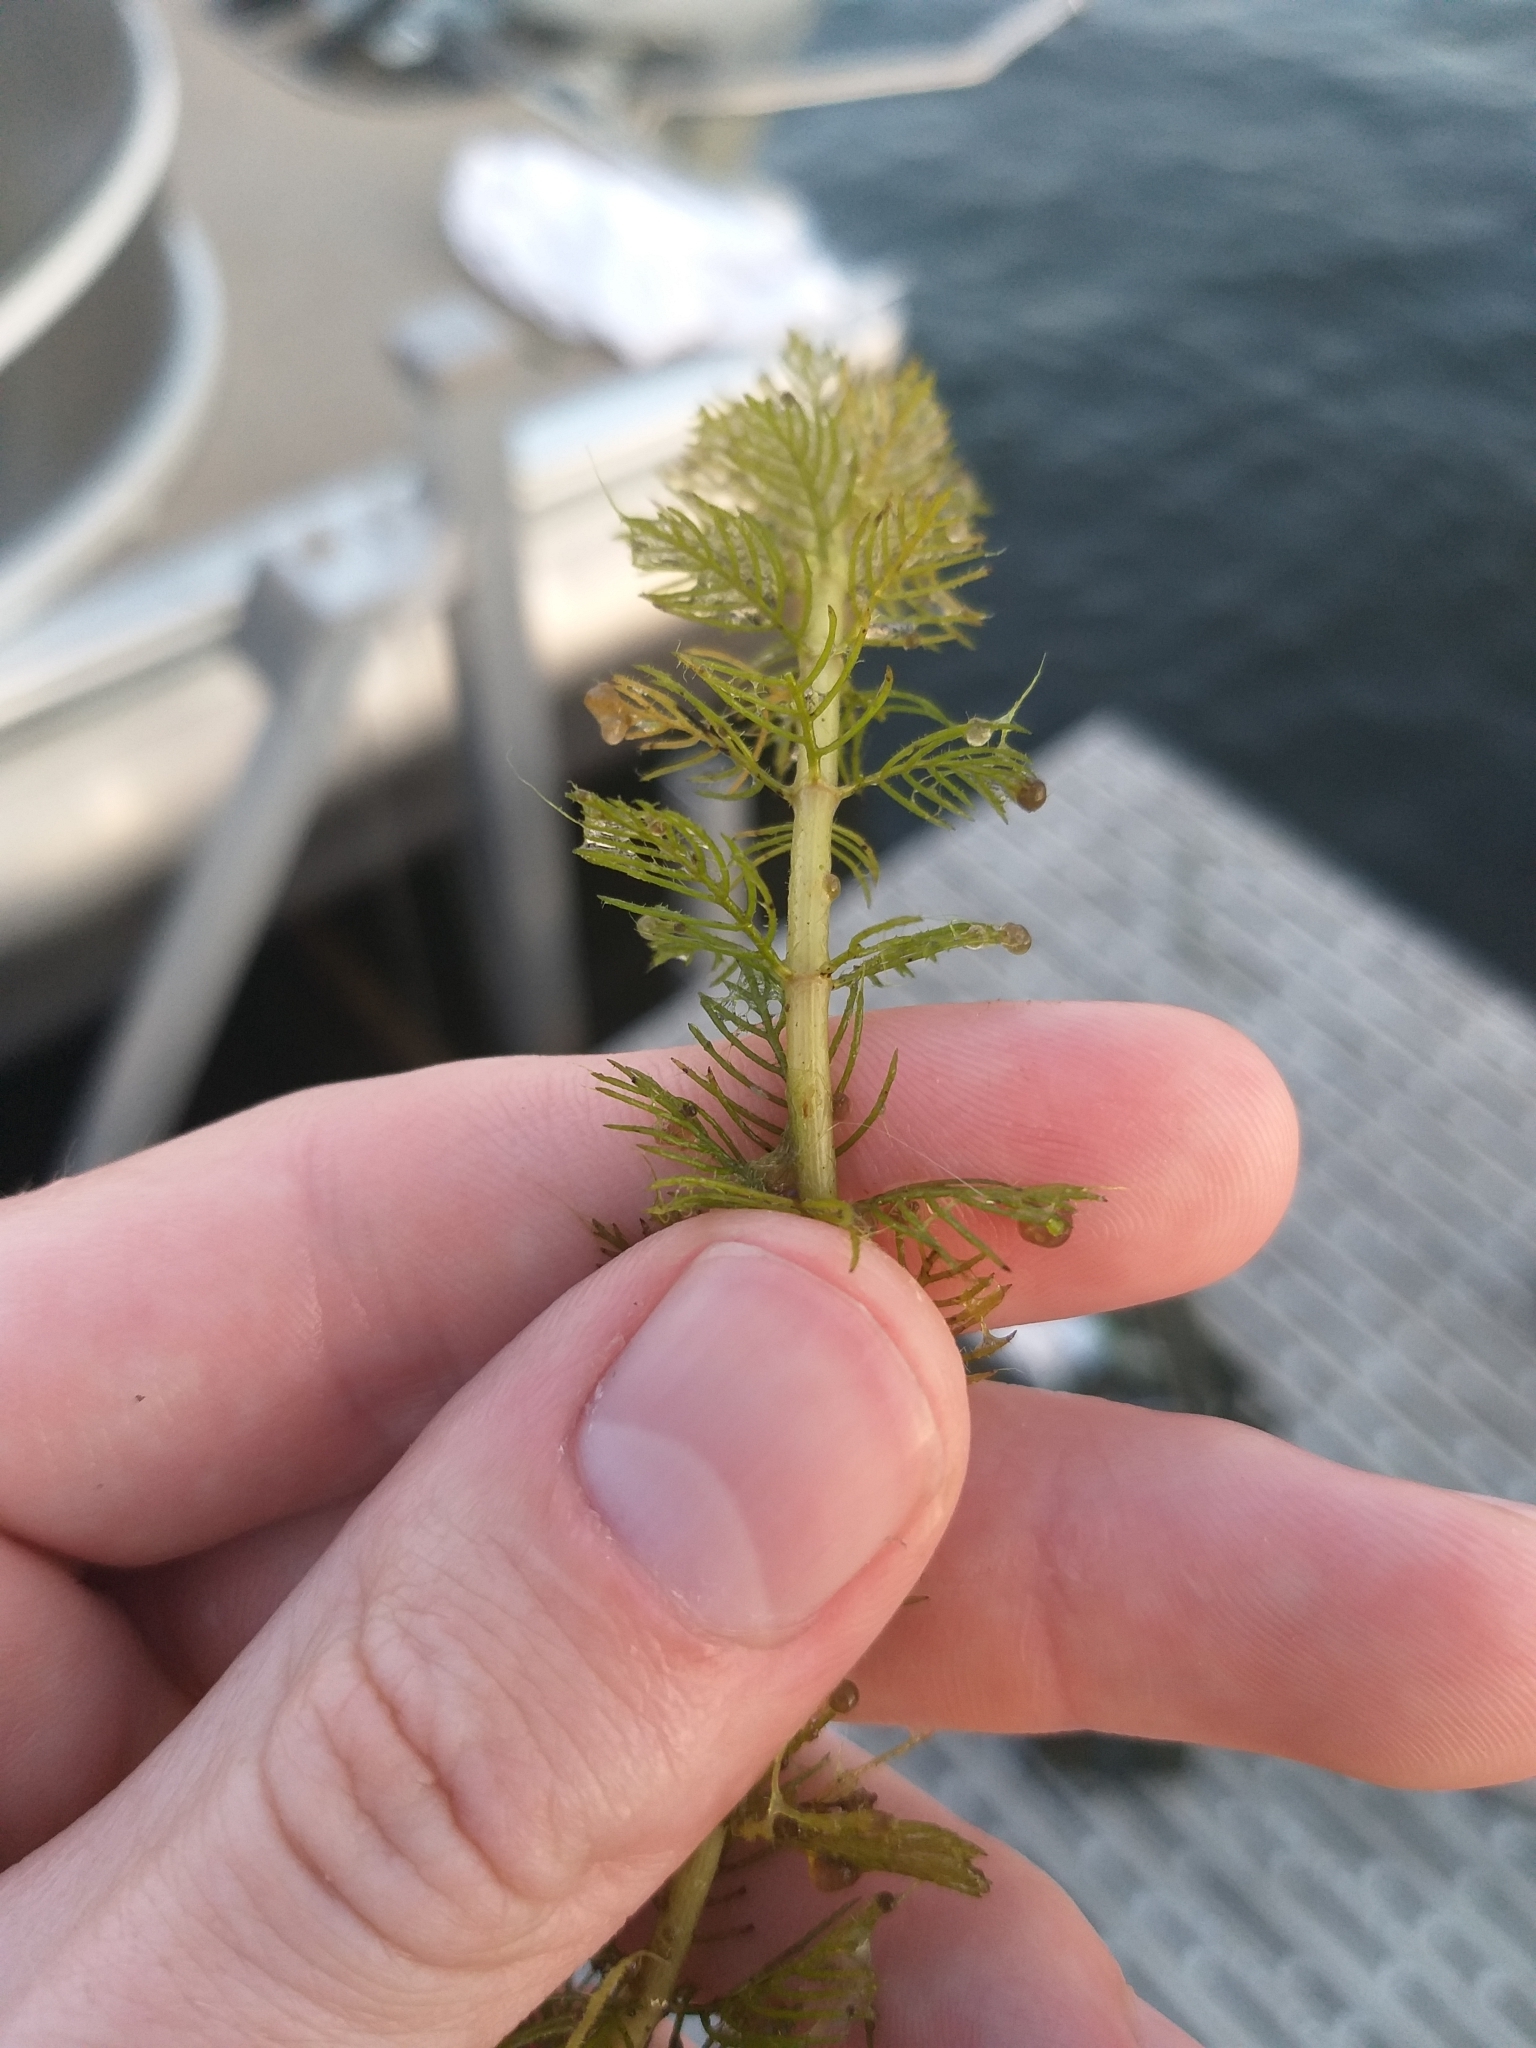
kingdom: Plantae
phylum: Tracheophyta
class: Magnoliopsida
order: Saxifragales
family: Haloragaceae
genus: Myriophyllum
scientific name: Myriophyllum sibiricum
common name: Siberian water-milfoil
